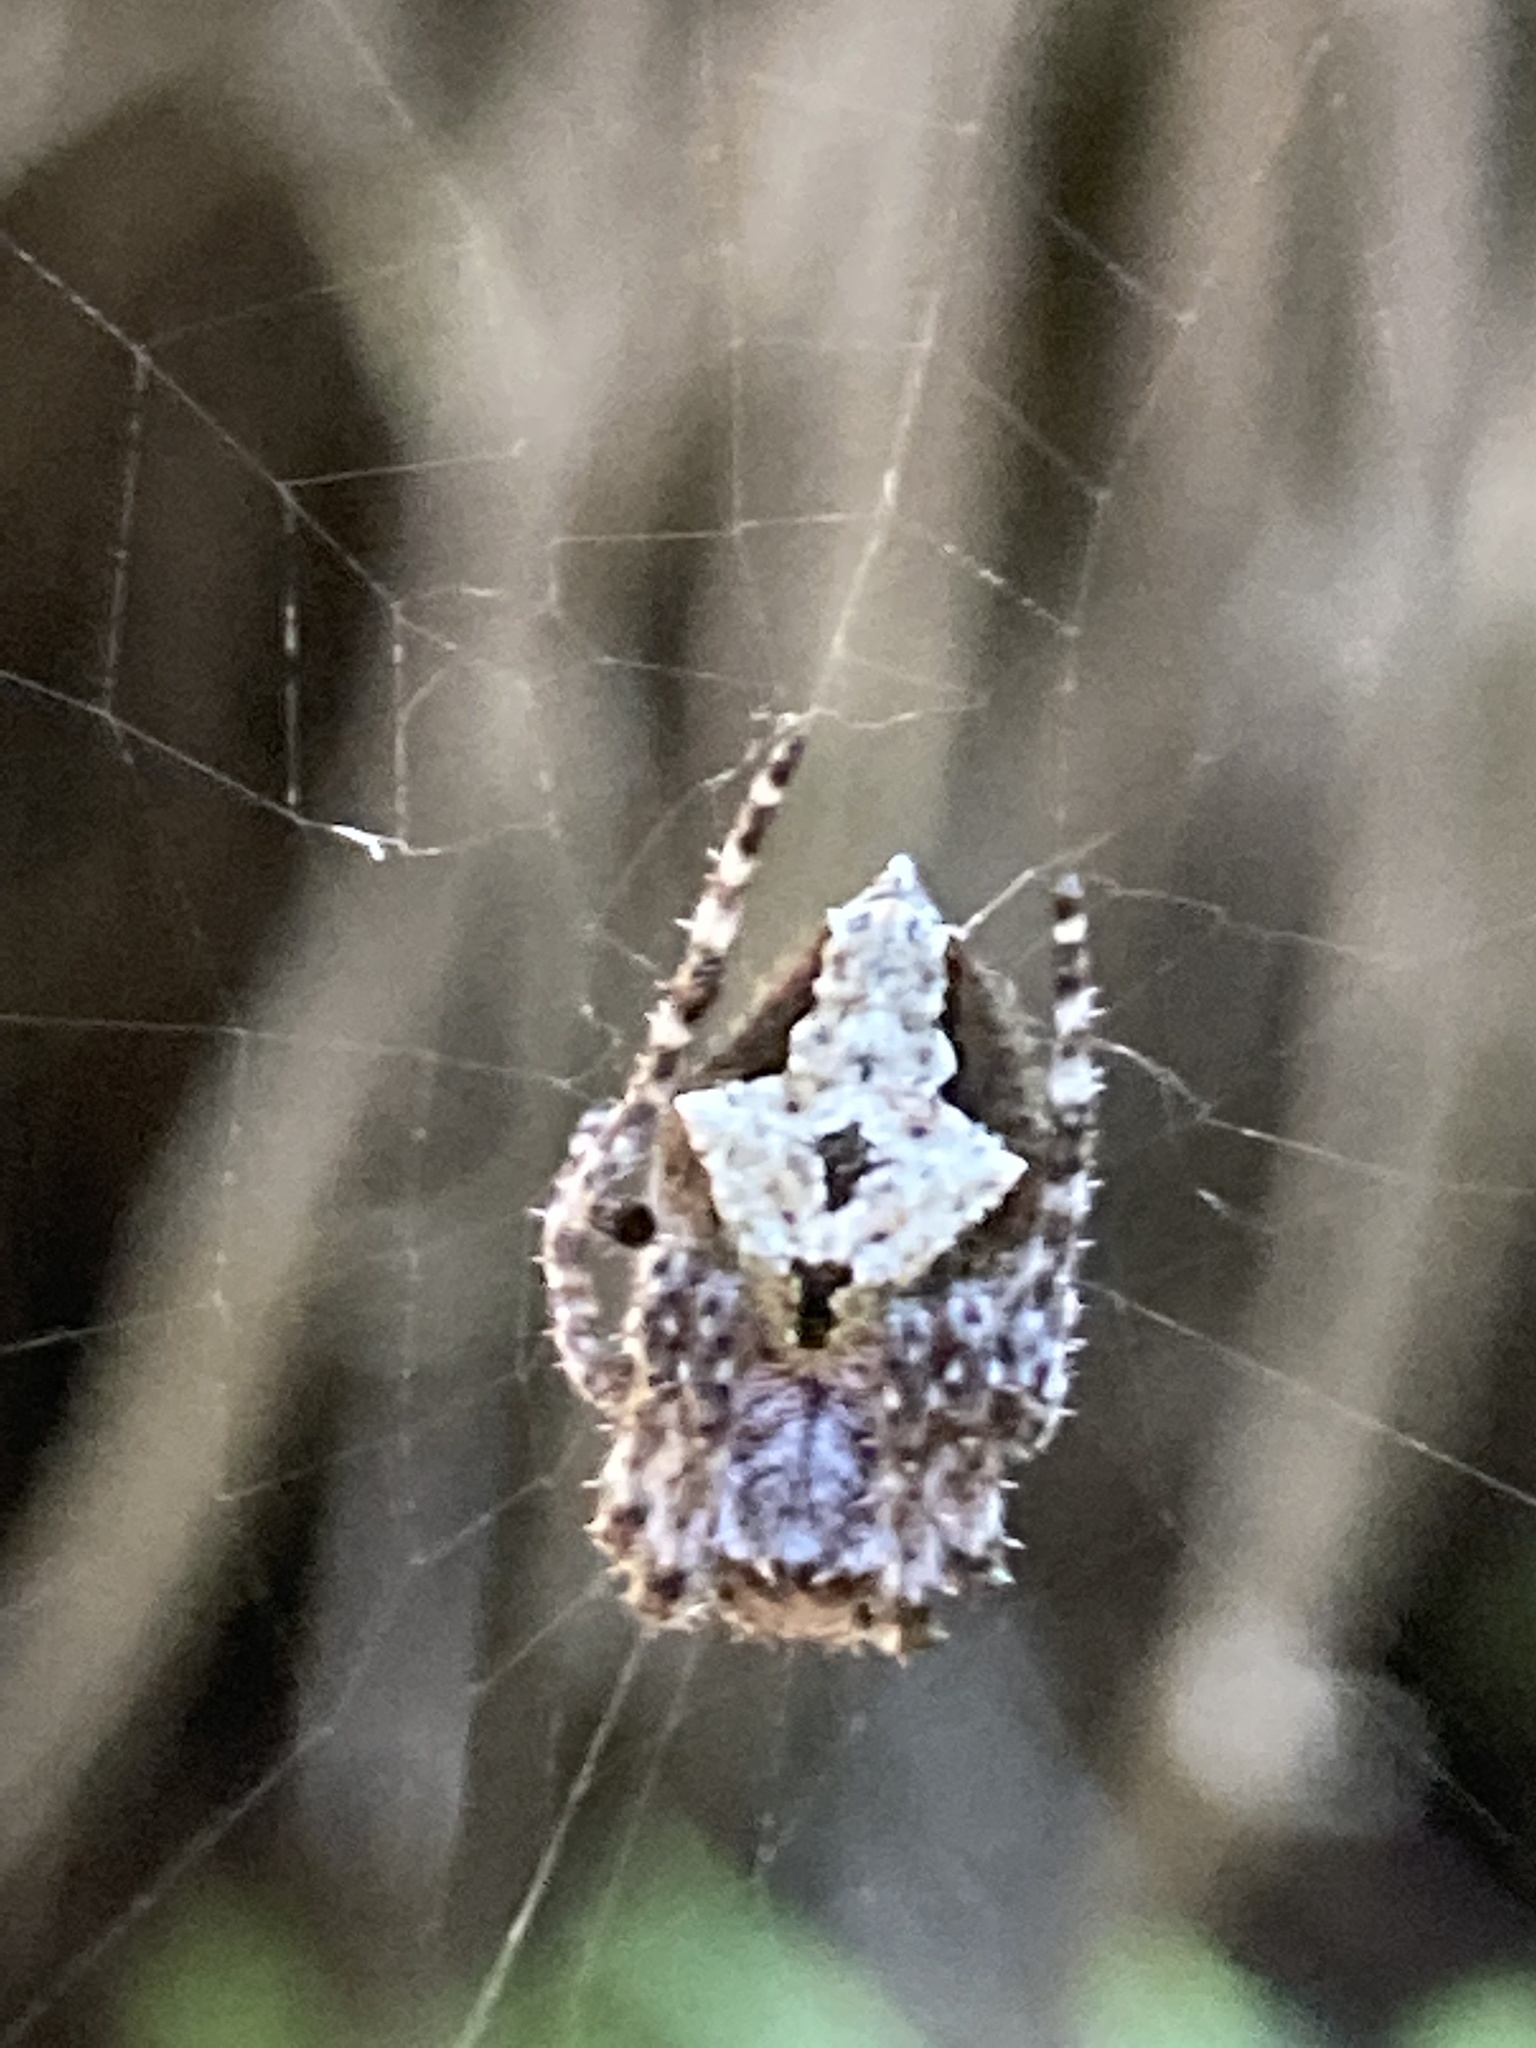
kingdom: Animalia
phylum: Arthropoda
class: Arachnida
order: Araneae
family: Araneidae
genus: Eriophora
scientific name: Eriophora pustulosa
